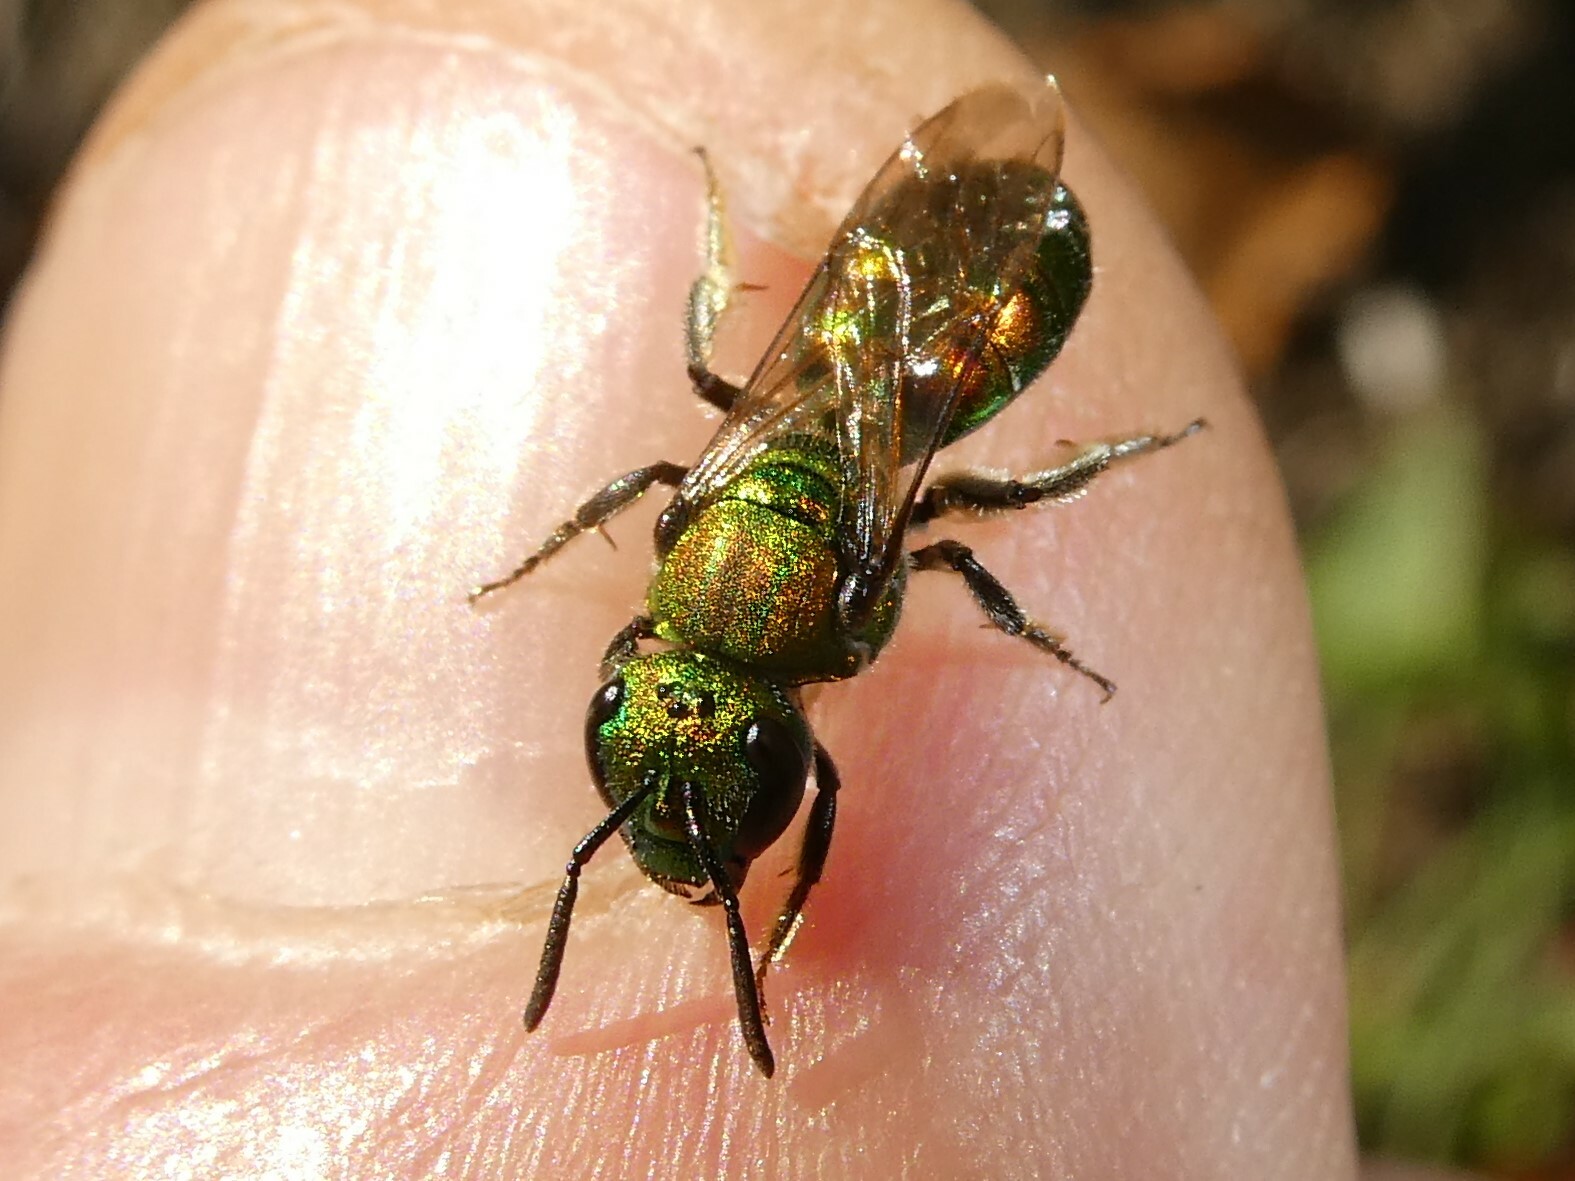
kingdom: Animalia
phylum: Arthropoda
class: Insecta
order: Hymenoptera
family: Halictidae
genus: Augochlora
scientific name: Augochlora pura
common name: Pure green sweat bee
